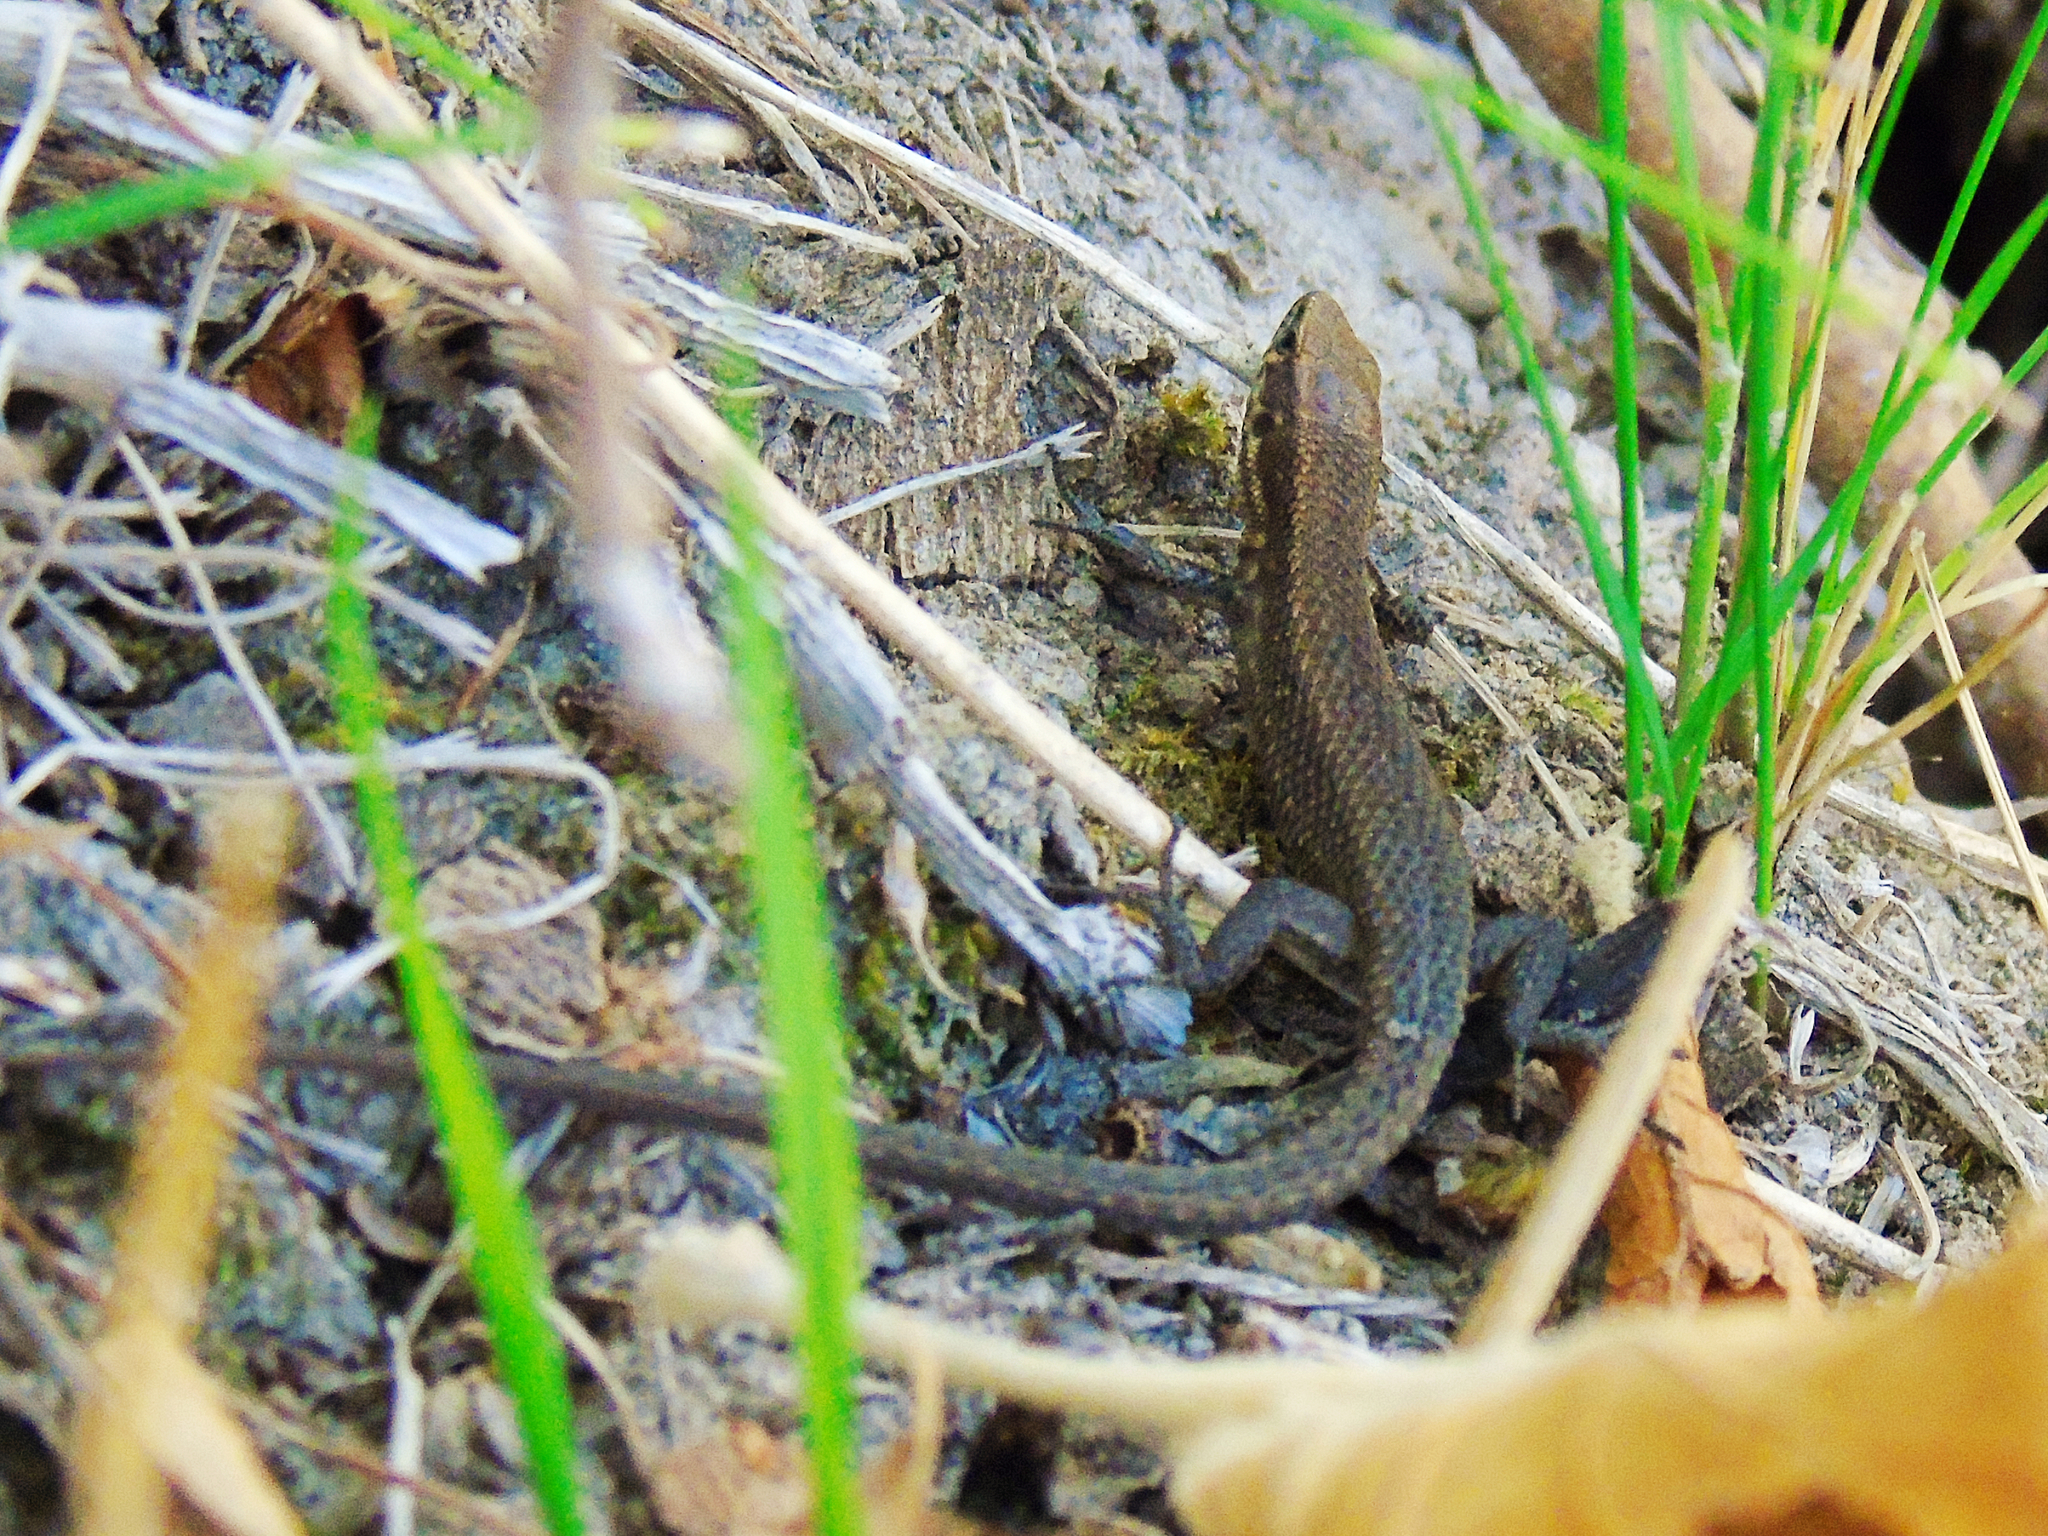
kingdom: Animalia
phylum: Chordata
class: Squamata
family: Lacertidae
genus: Algyroides
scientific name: Algyroides moreoticus
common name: Greek algyroides
